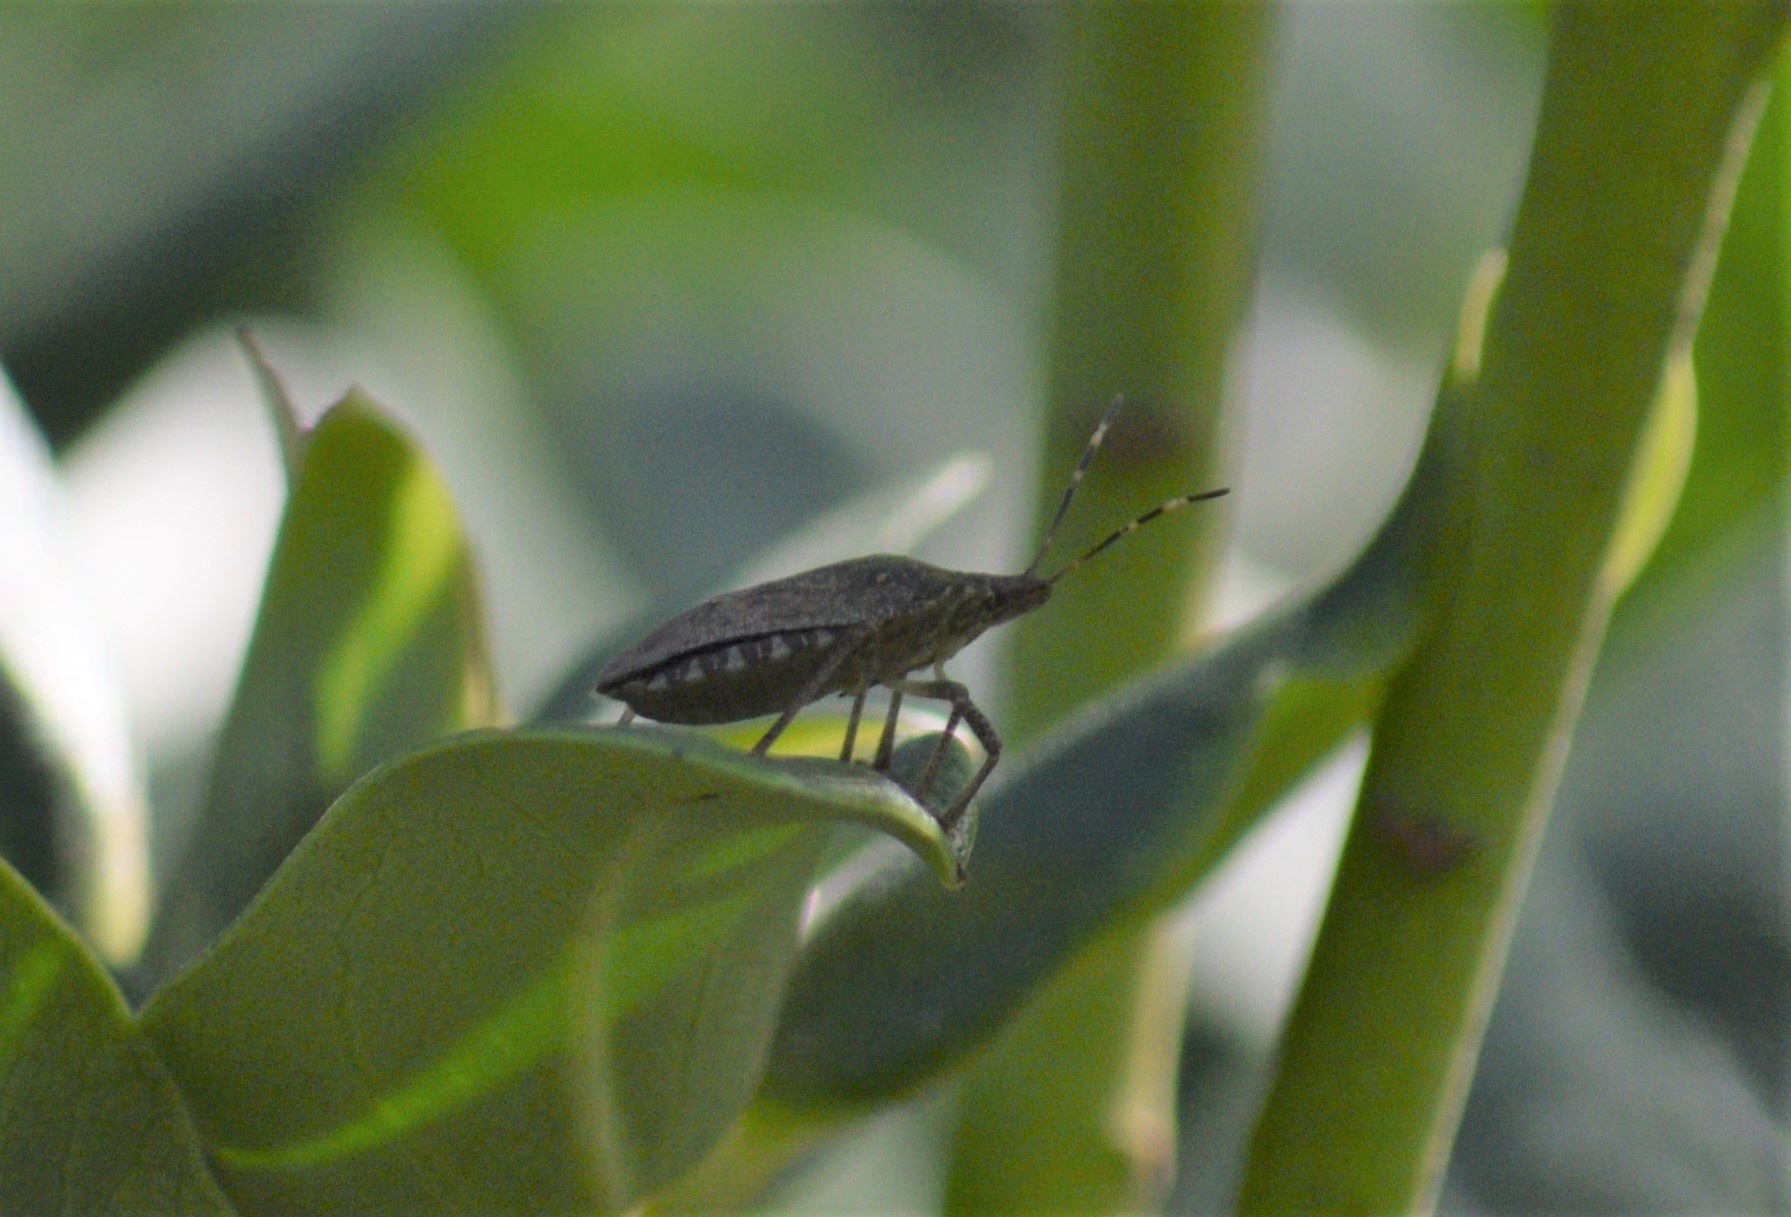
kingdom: Animalia
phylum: Arthropoda
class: Insecta
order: Hemiptera
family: Pentatomidae
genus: Halyomorpha
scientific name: Halyomorpha halys
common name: Brown marmorated stink bug
